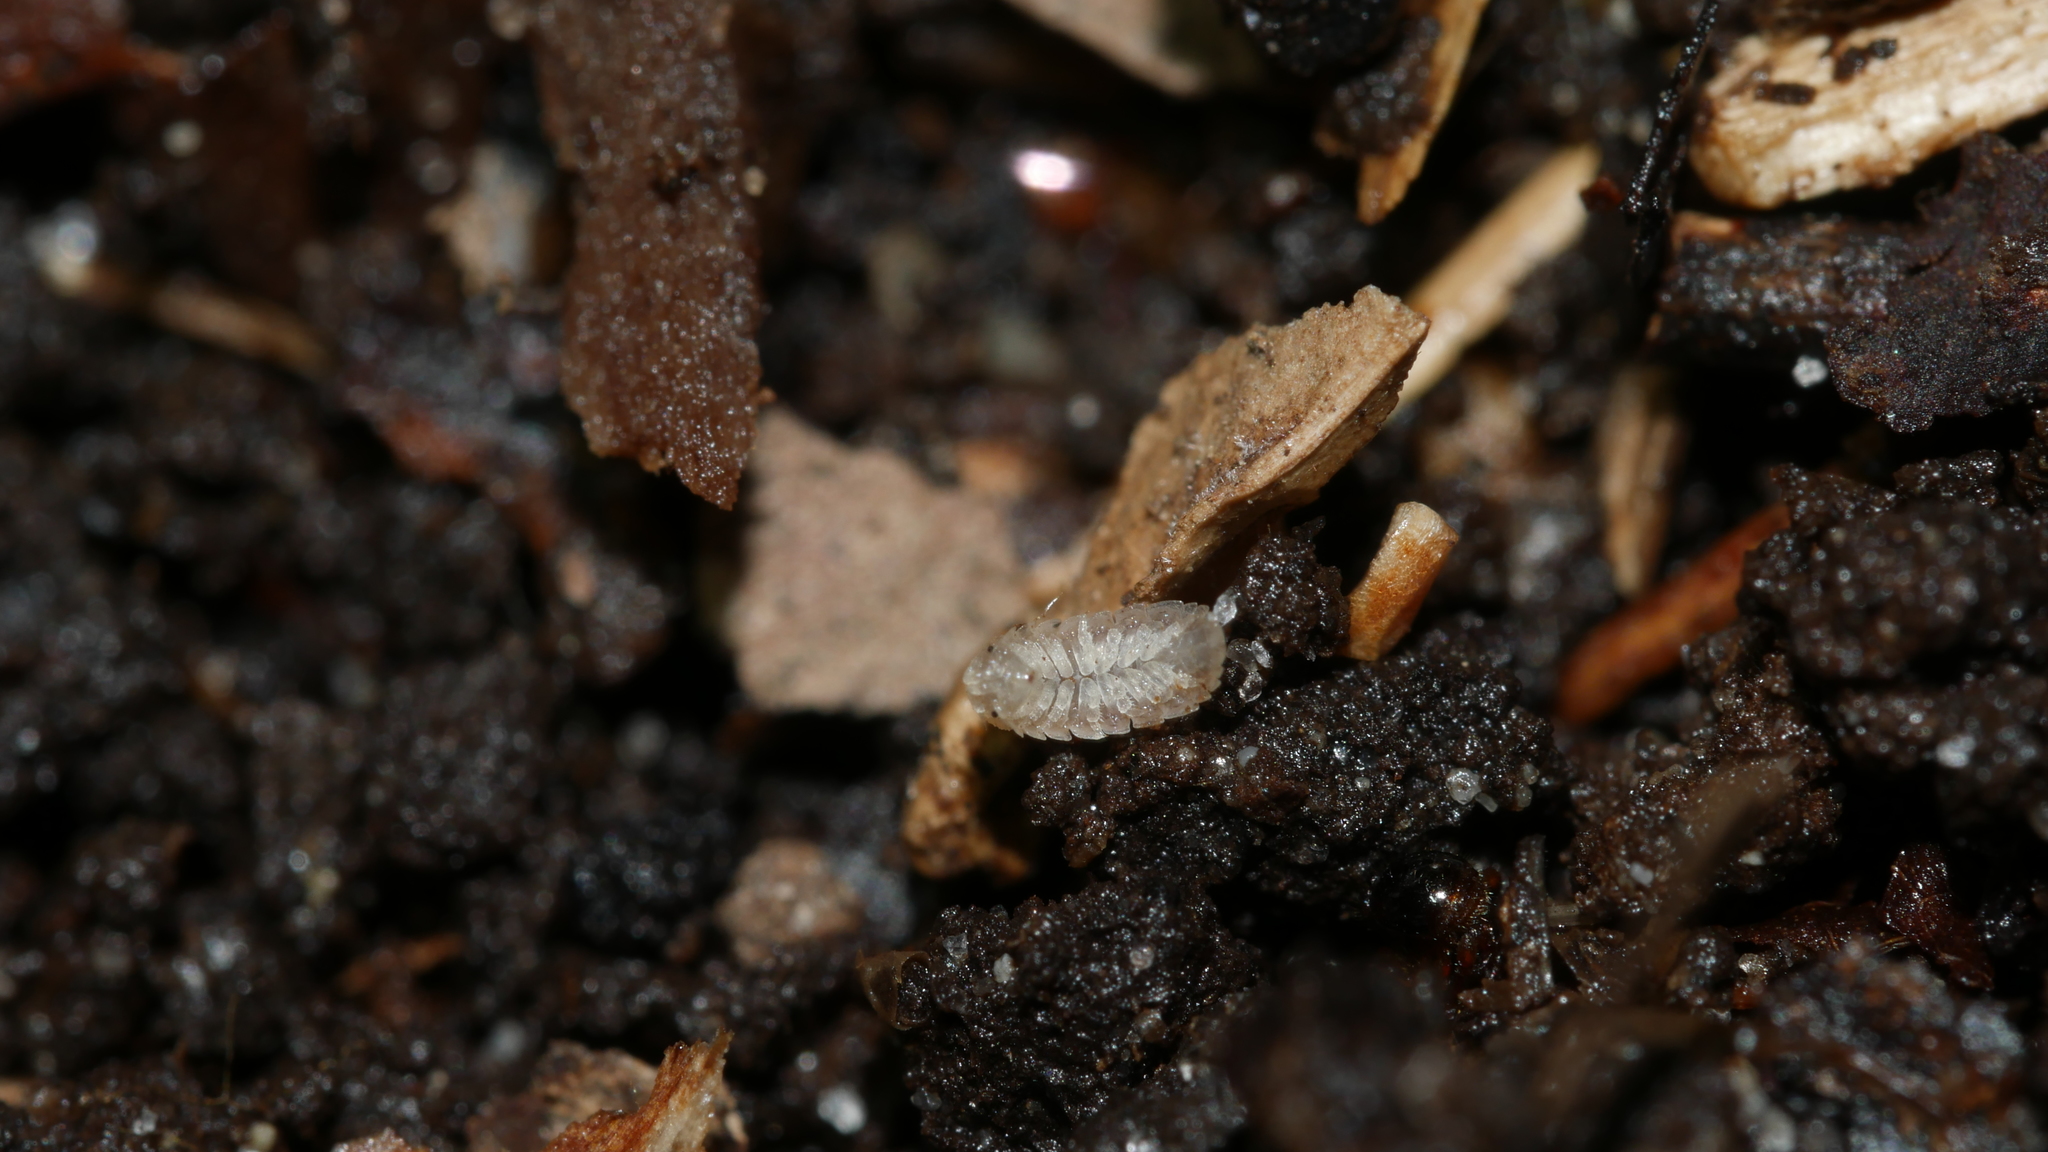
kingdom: Animalia
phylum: Arthropoda
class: Malacostraca
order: Isopoda
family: Trichoniscidae
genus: Haplophthalmus
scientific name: Haplophthalmus danicus
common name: Pillbug
